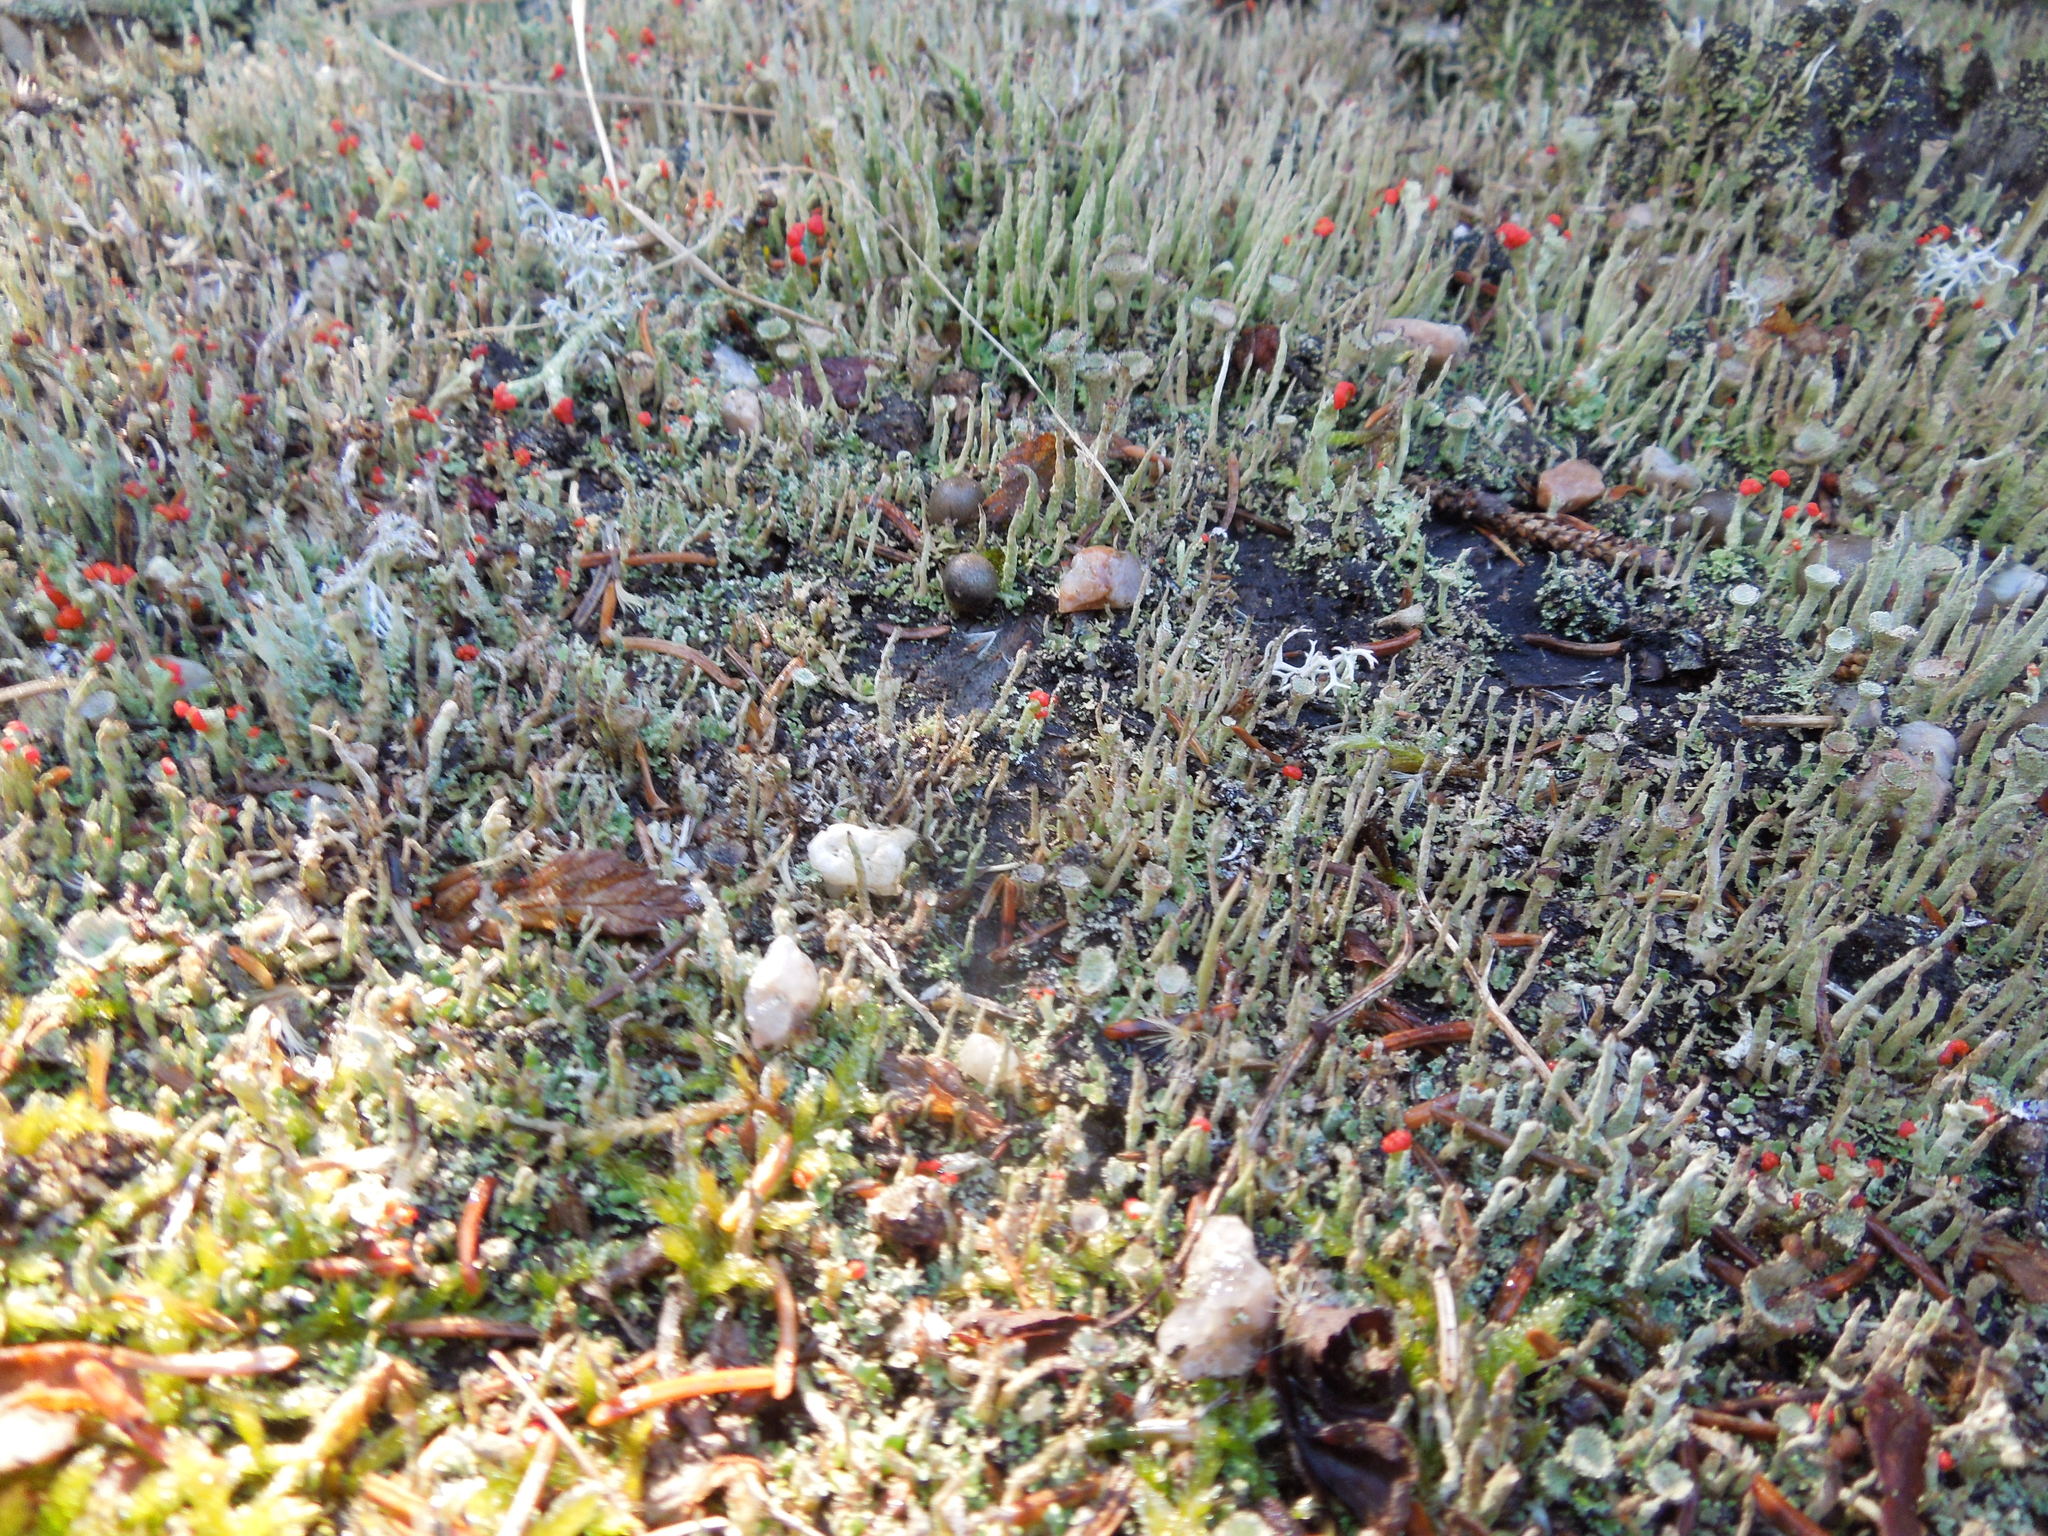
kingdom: Protozoa
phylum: Mycetozoa
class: Myxomycetes
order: Cribrariales
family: Tubiferaceae
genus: Lycogala
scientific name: Lycogala epidendrum
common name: Wolf's milk
